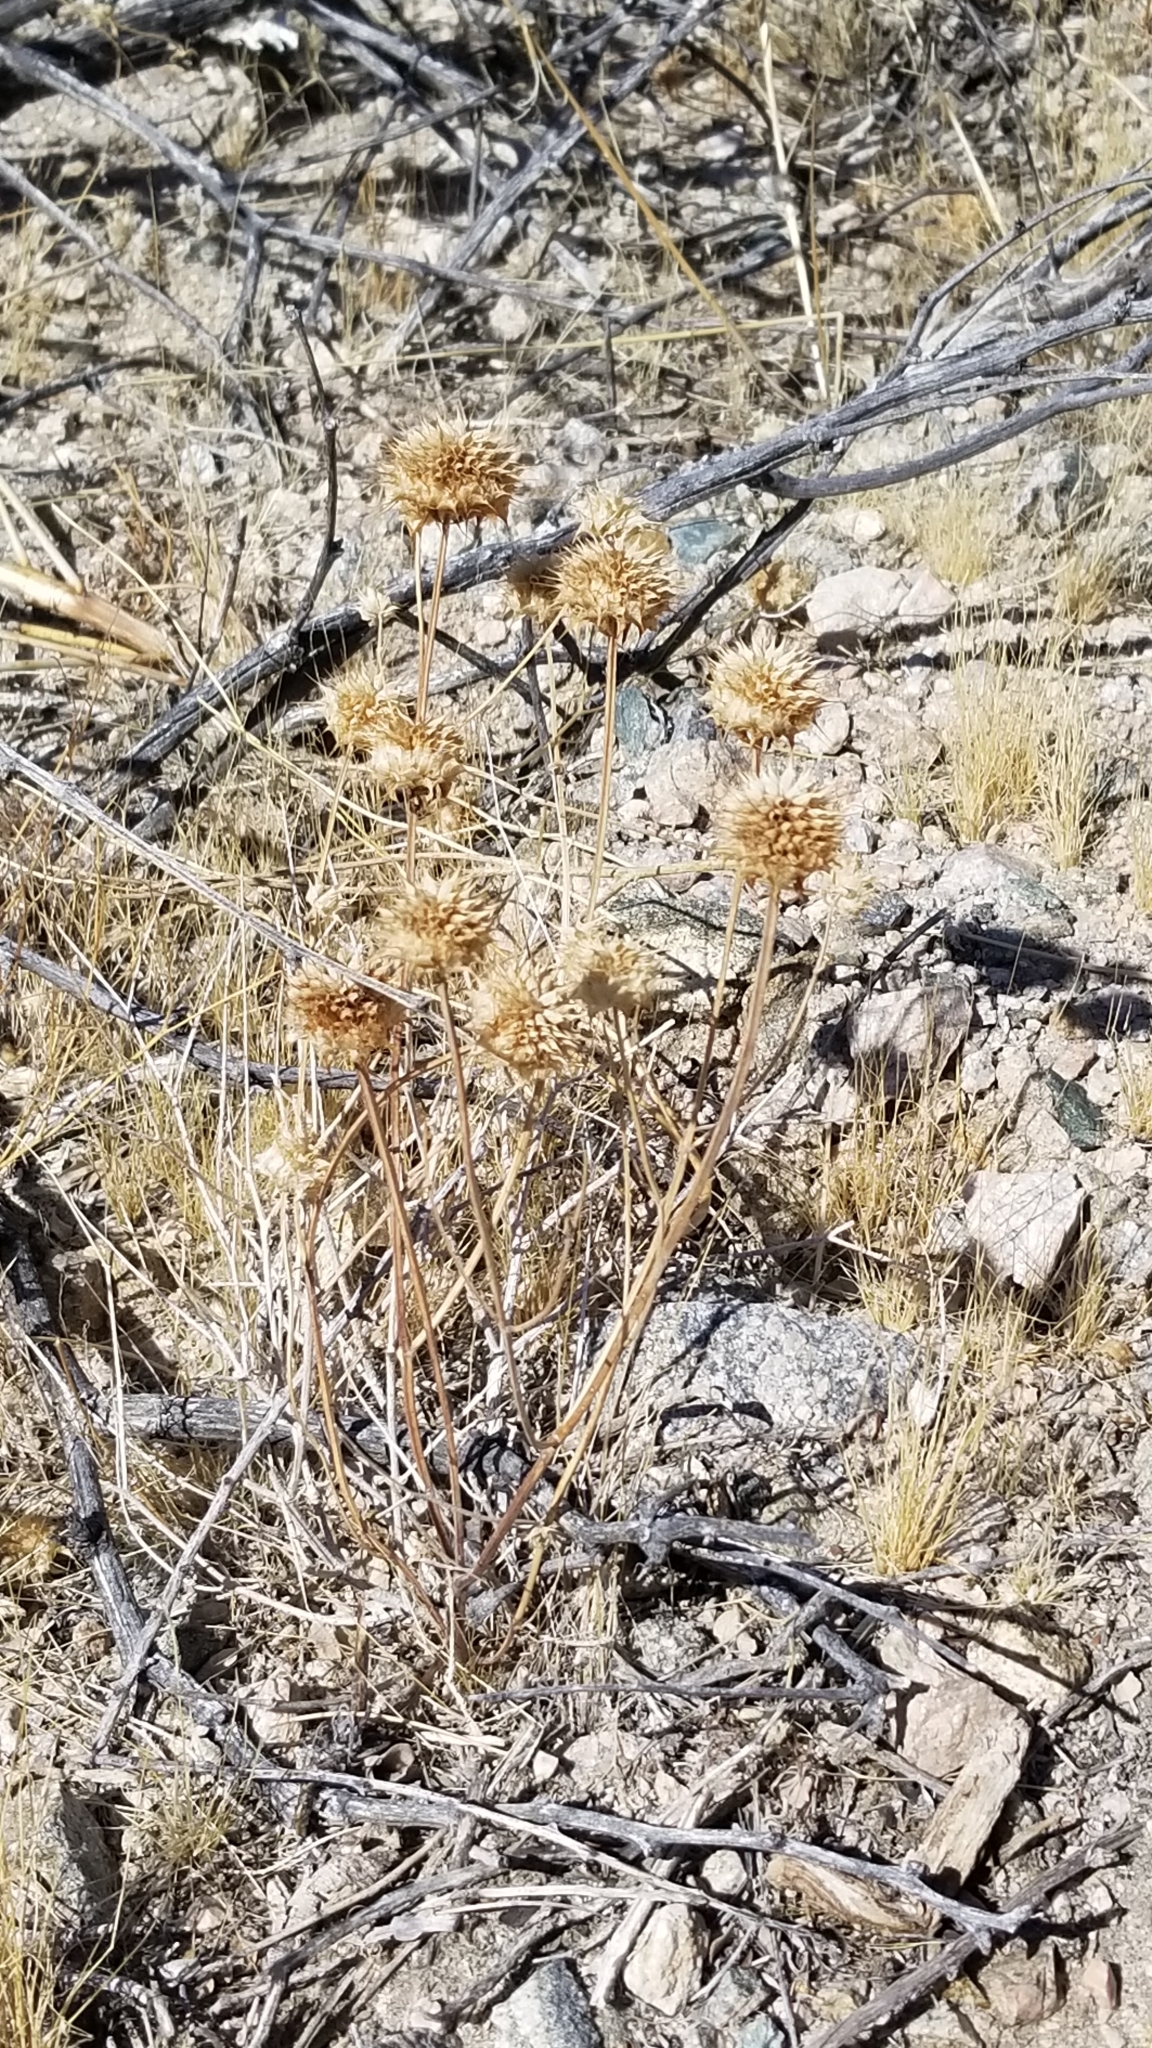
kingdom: Plantae
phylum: Tracheophyta
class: Magnoliopsida
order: Lamiales
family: Lamiaceae
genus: Salvia
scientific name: Salvia columbariae
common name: Chia
